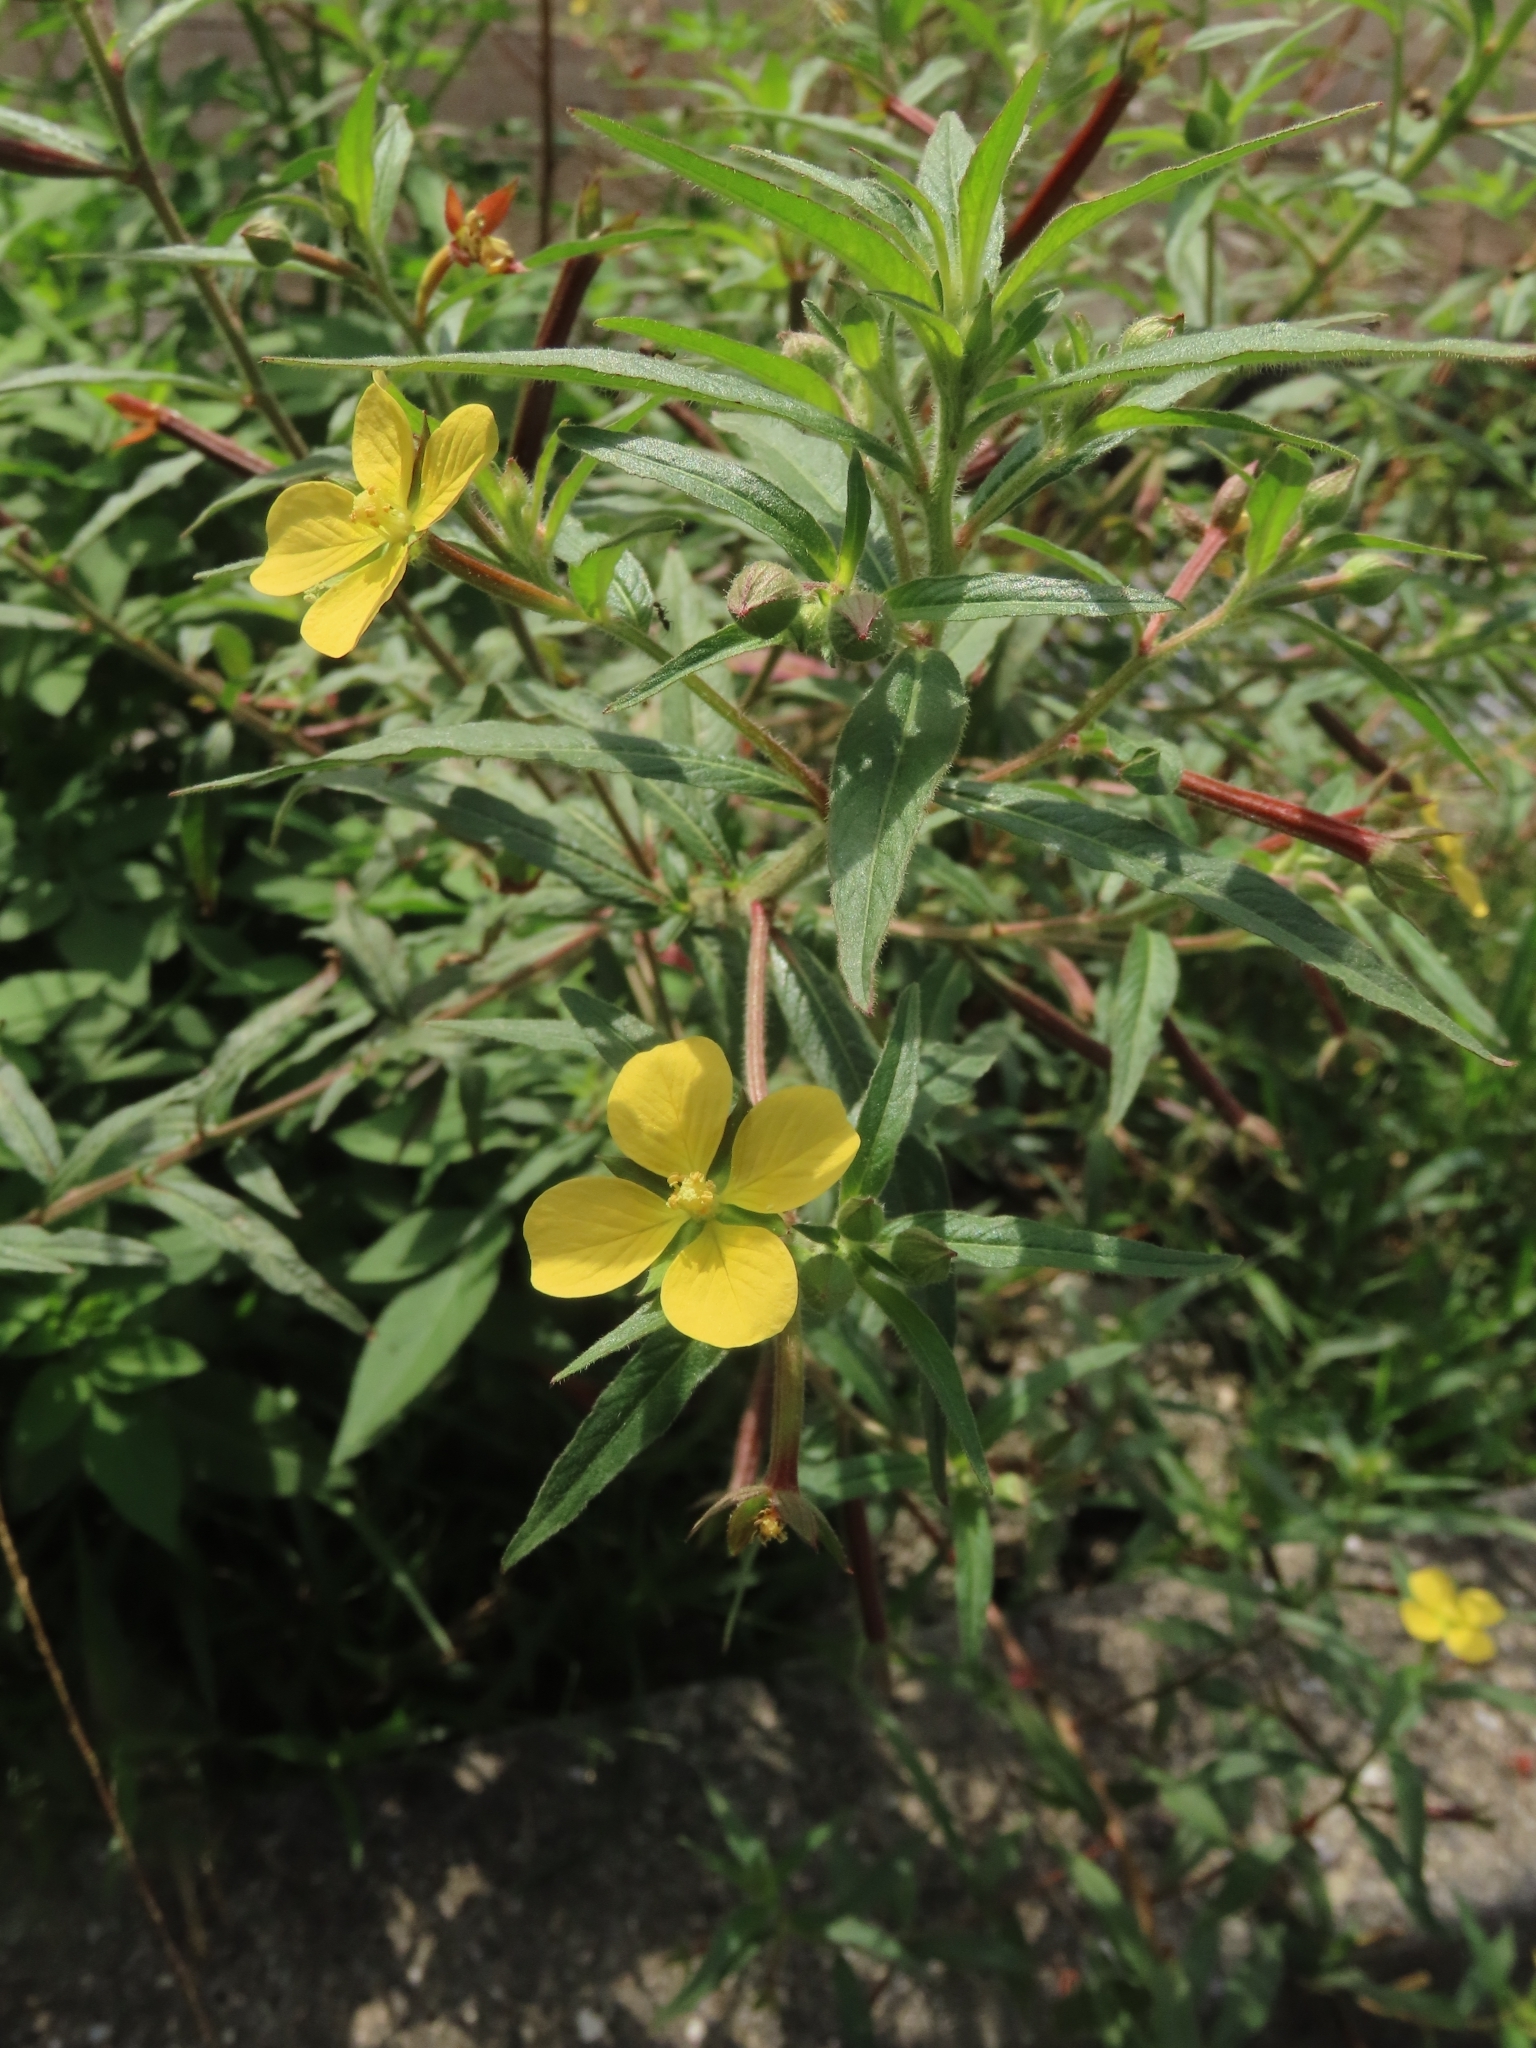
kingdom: Plantae
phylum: Tracheophyta
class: Magnoliopsida
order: Myrtales
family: Onagraceae
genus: Ludwigia
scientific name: Ludwigia octovalvis
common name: Water-primrose
